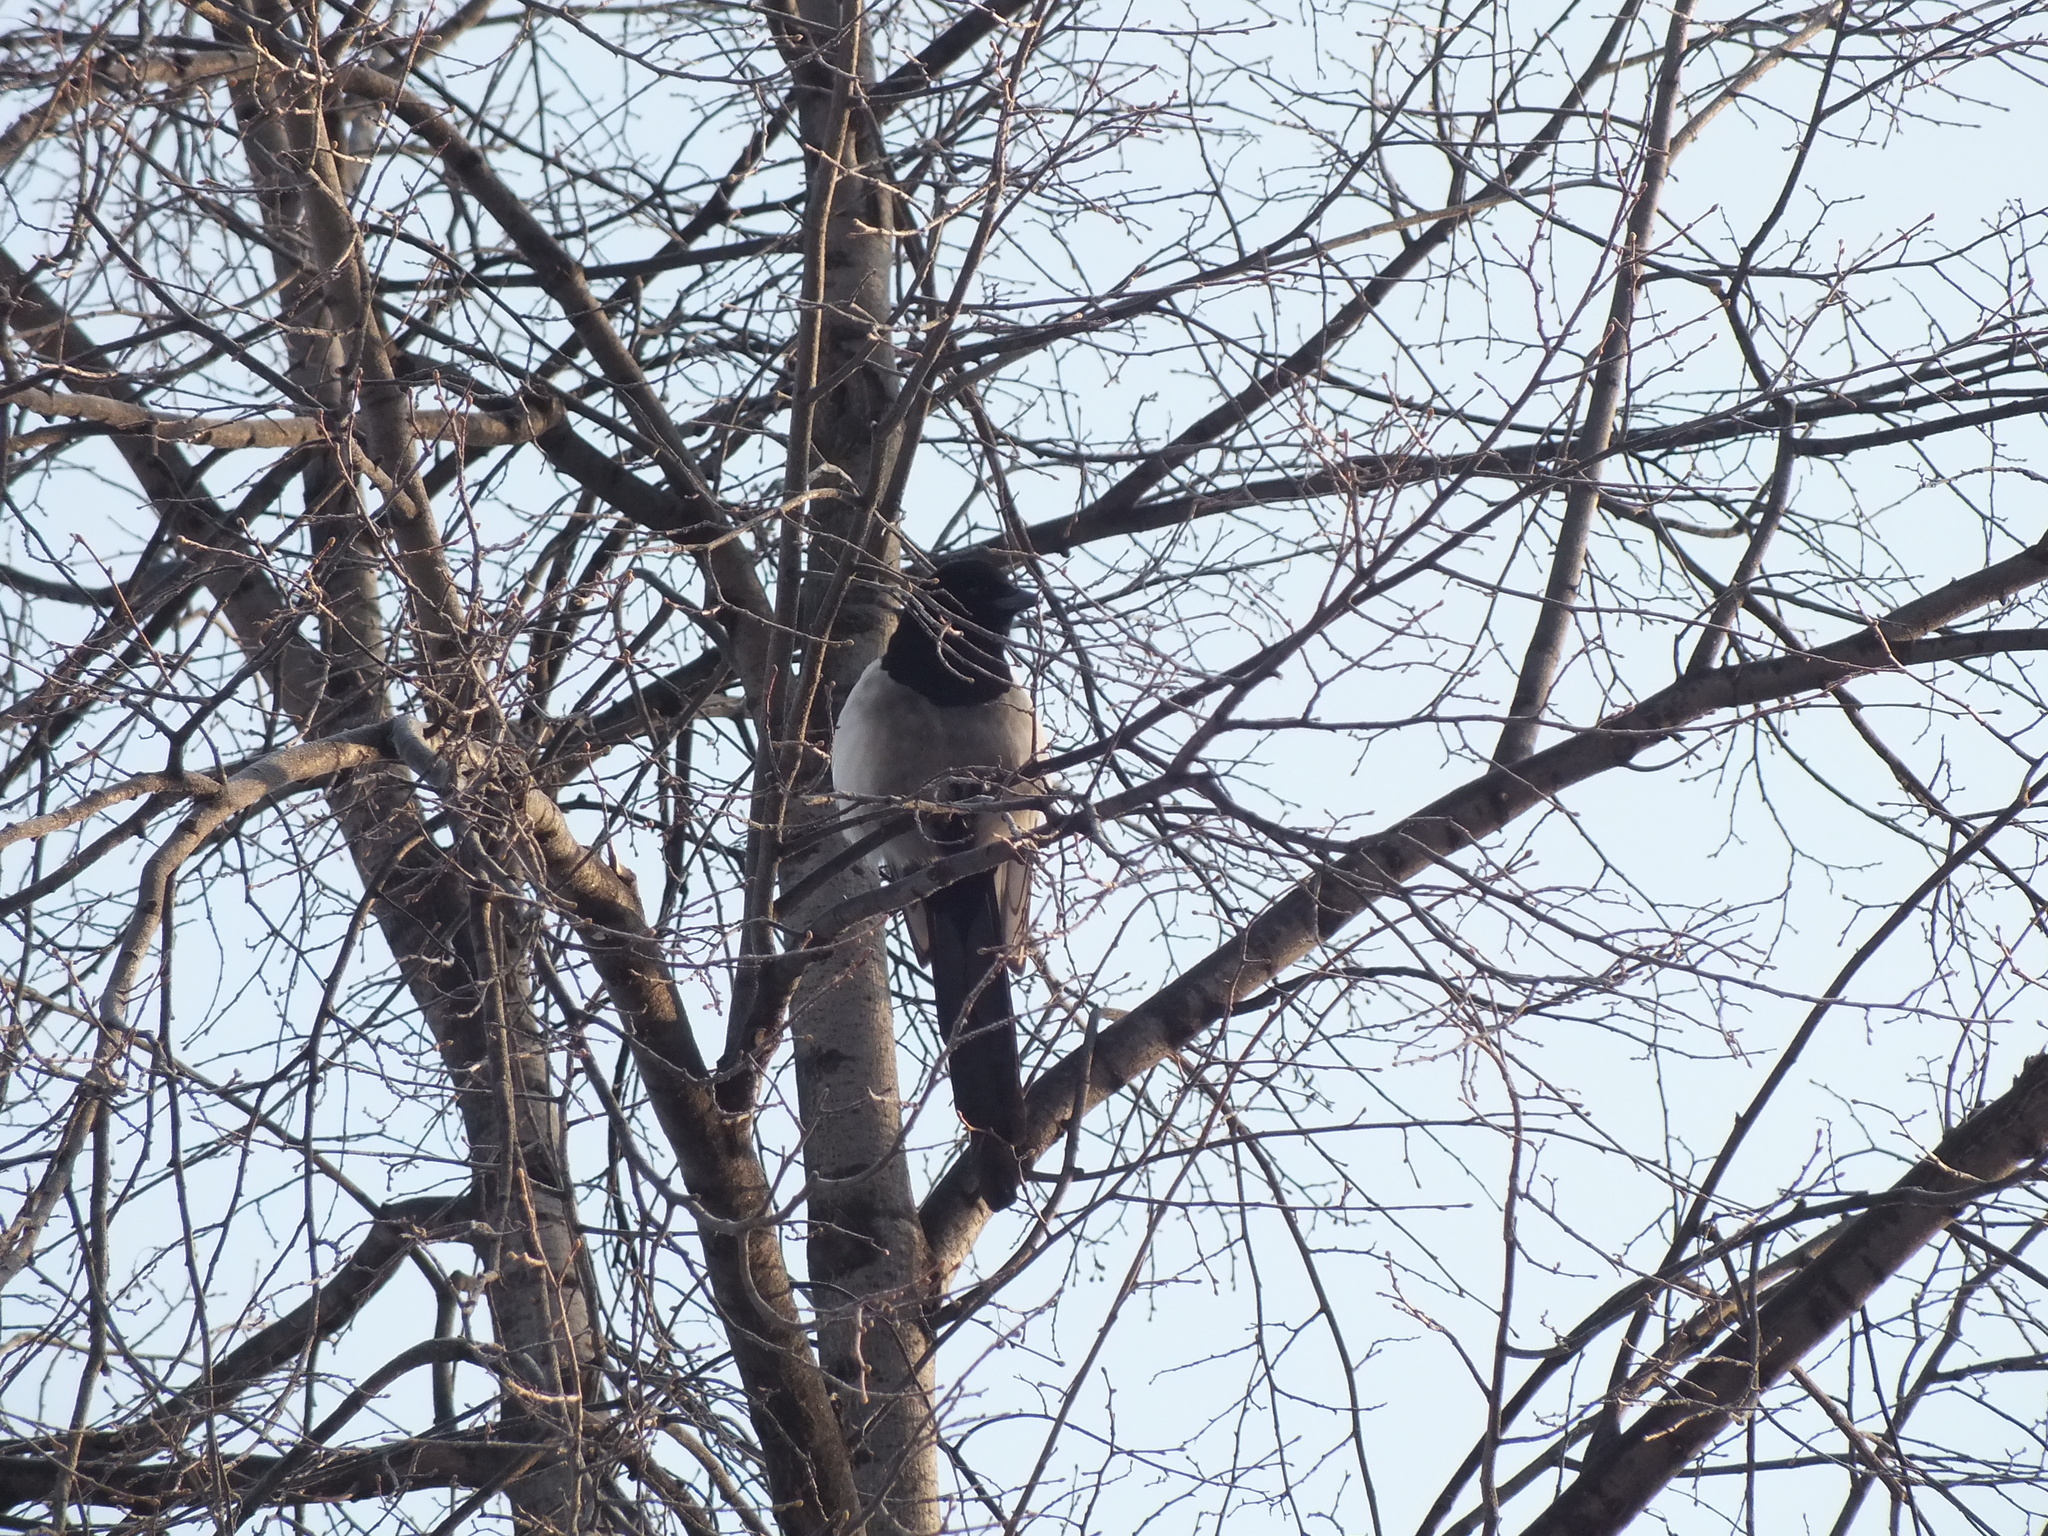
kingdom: Animalia
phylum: Chordata
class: Aves
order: Passeriformes
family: Corvidae
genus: Pica
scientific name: Pica pica
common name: Eurasian magpie
